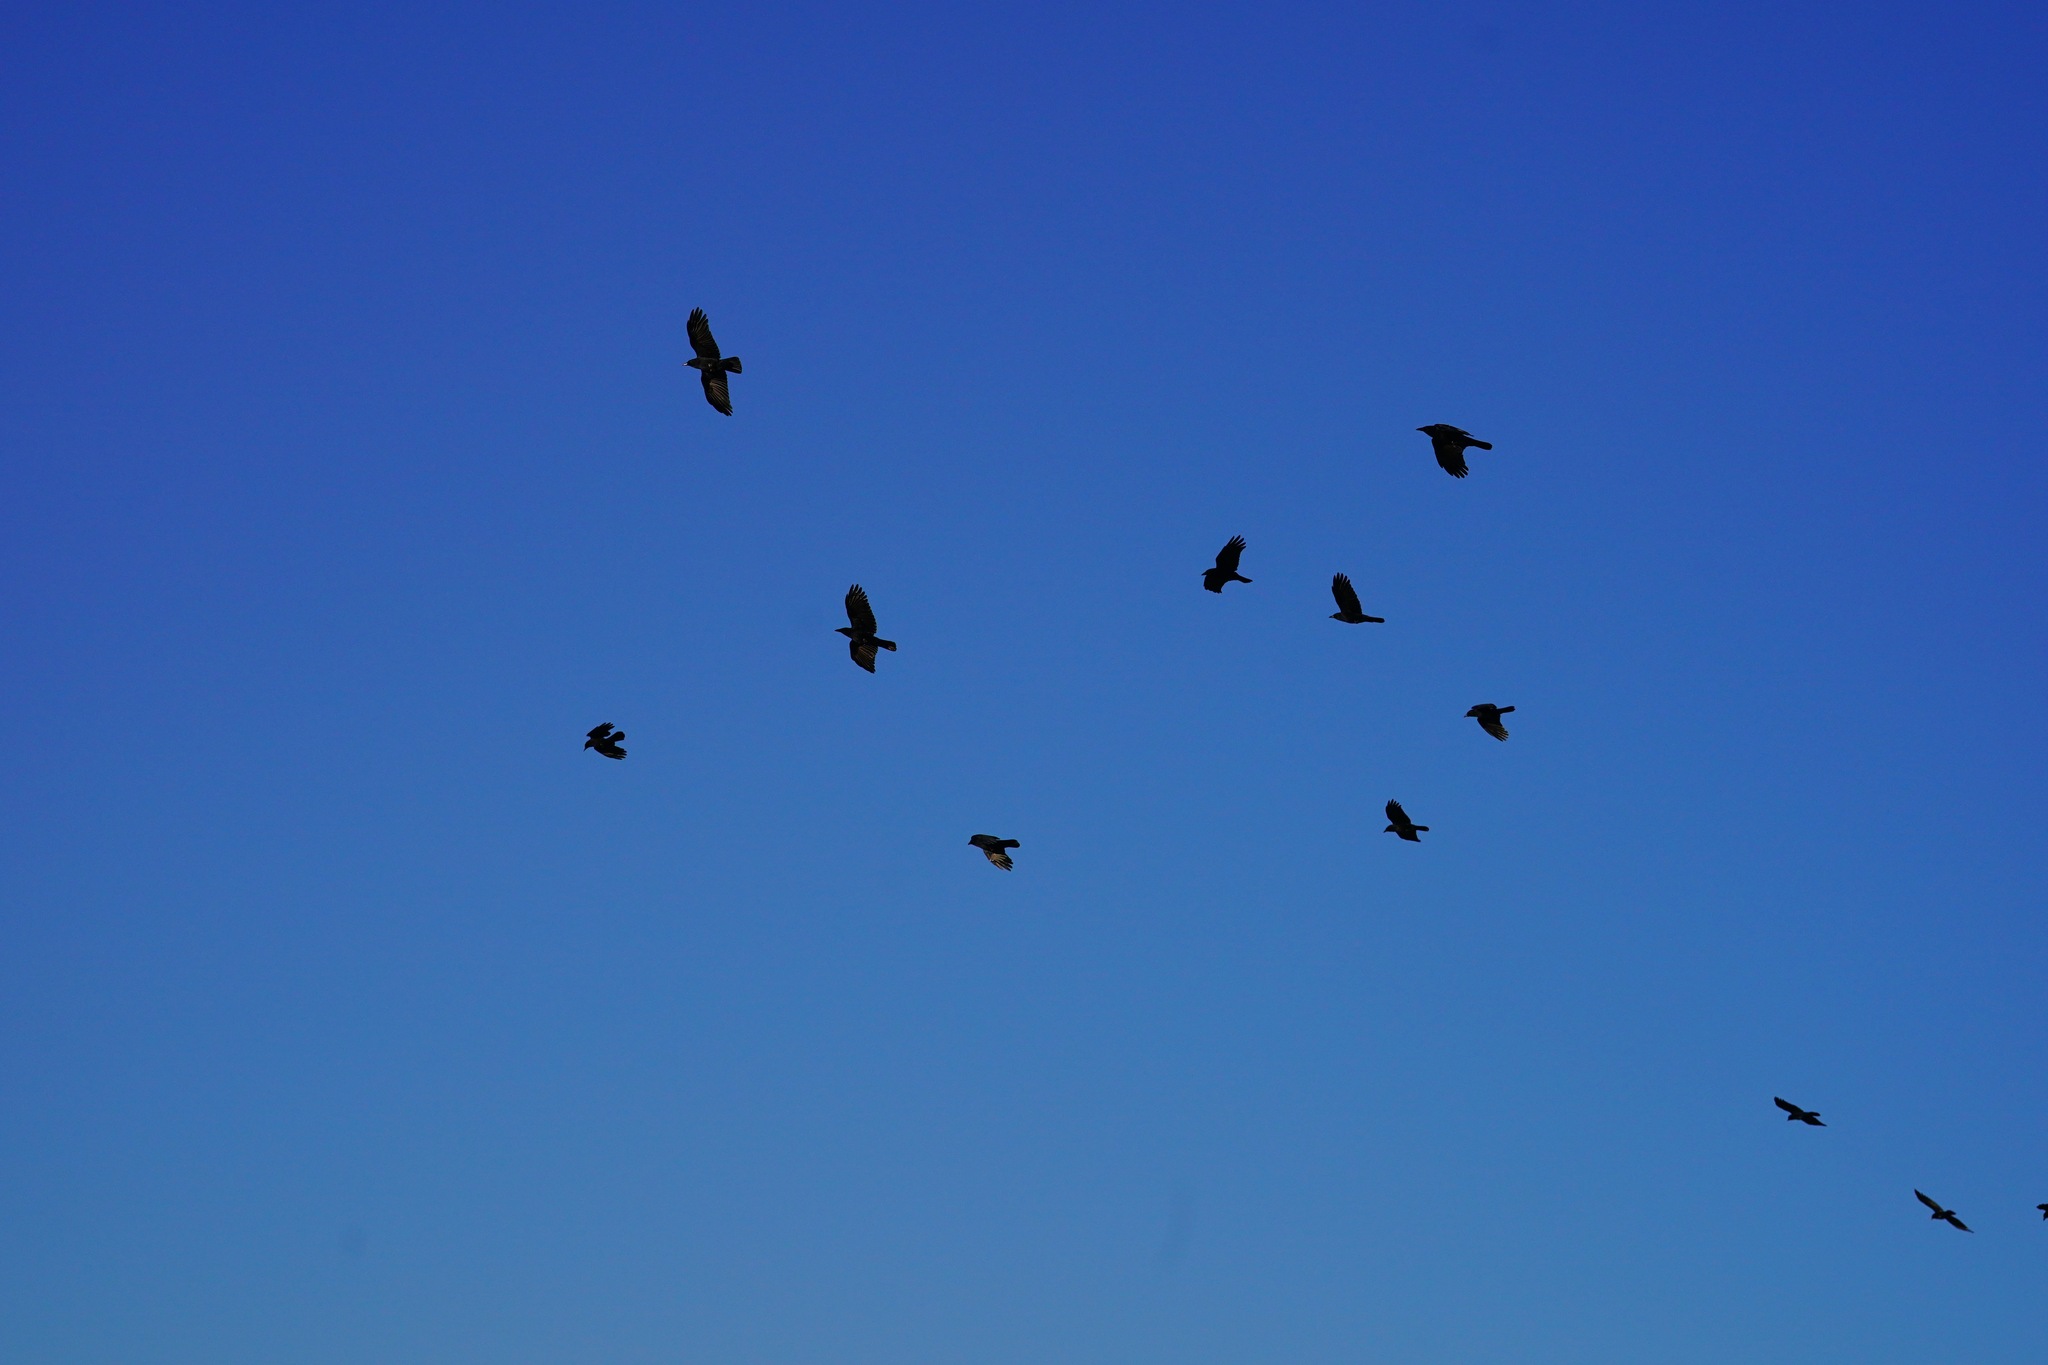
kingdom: Animalia
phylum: Chordata
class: Aves
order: Passeriformes
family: Corvidae
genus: Corvus
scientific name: Corvus brachyrhynchos
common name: American crow
